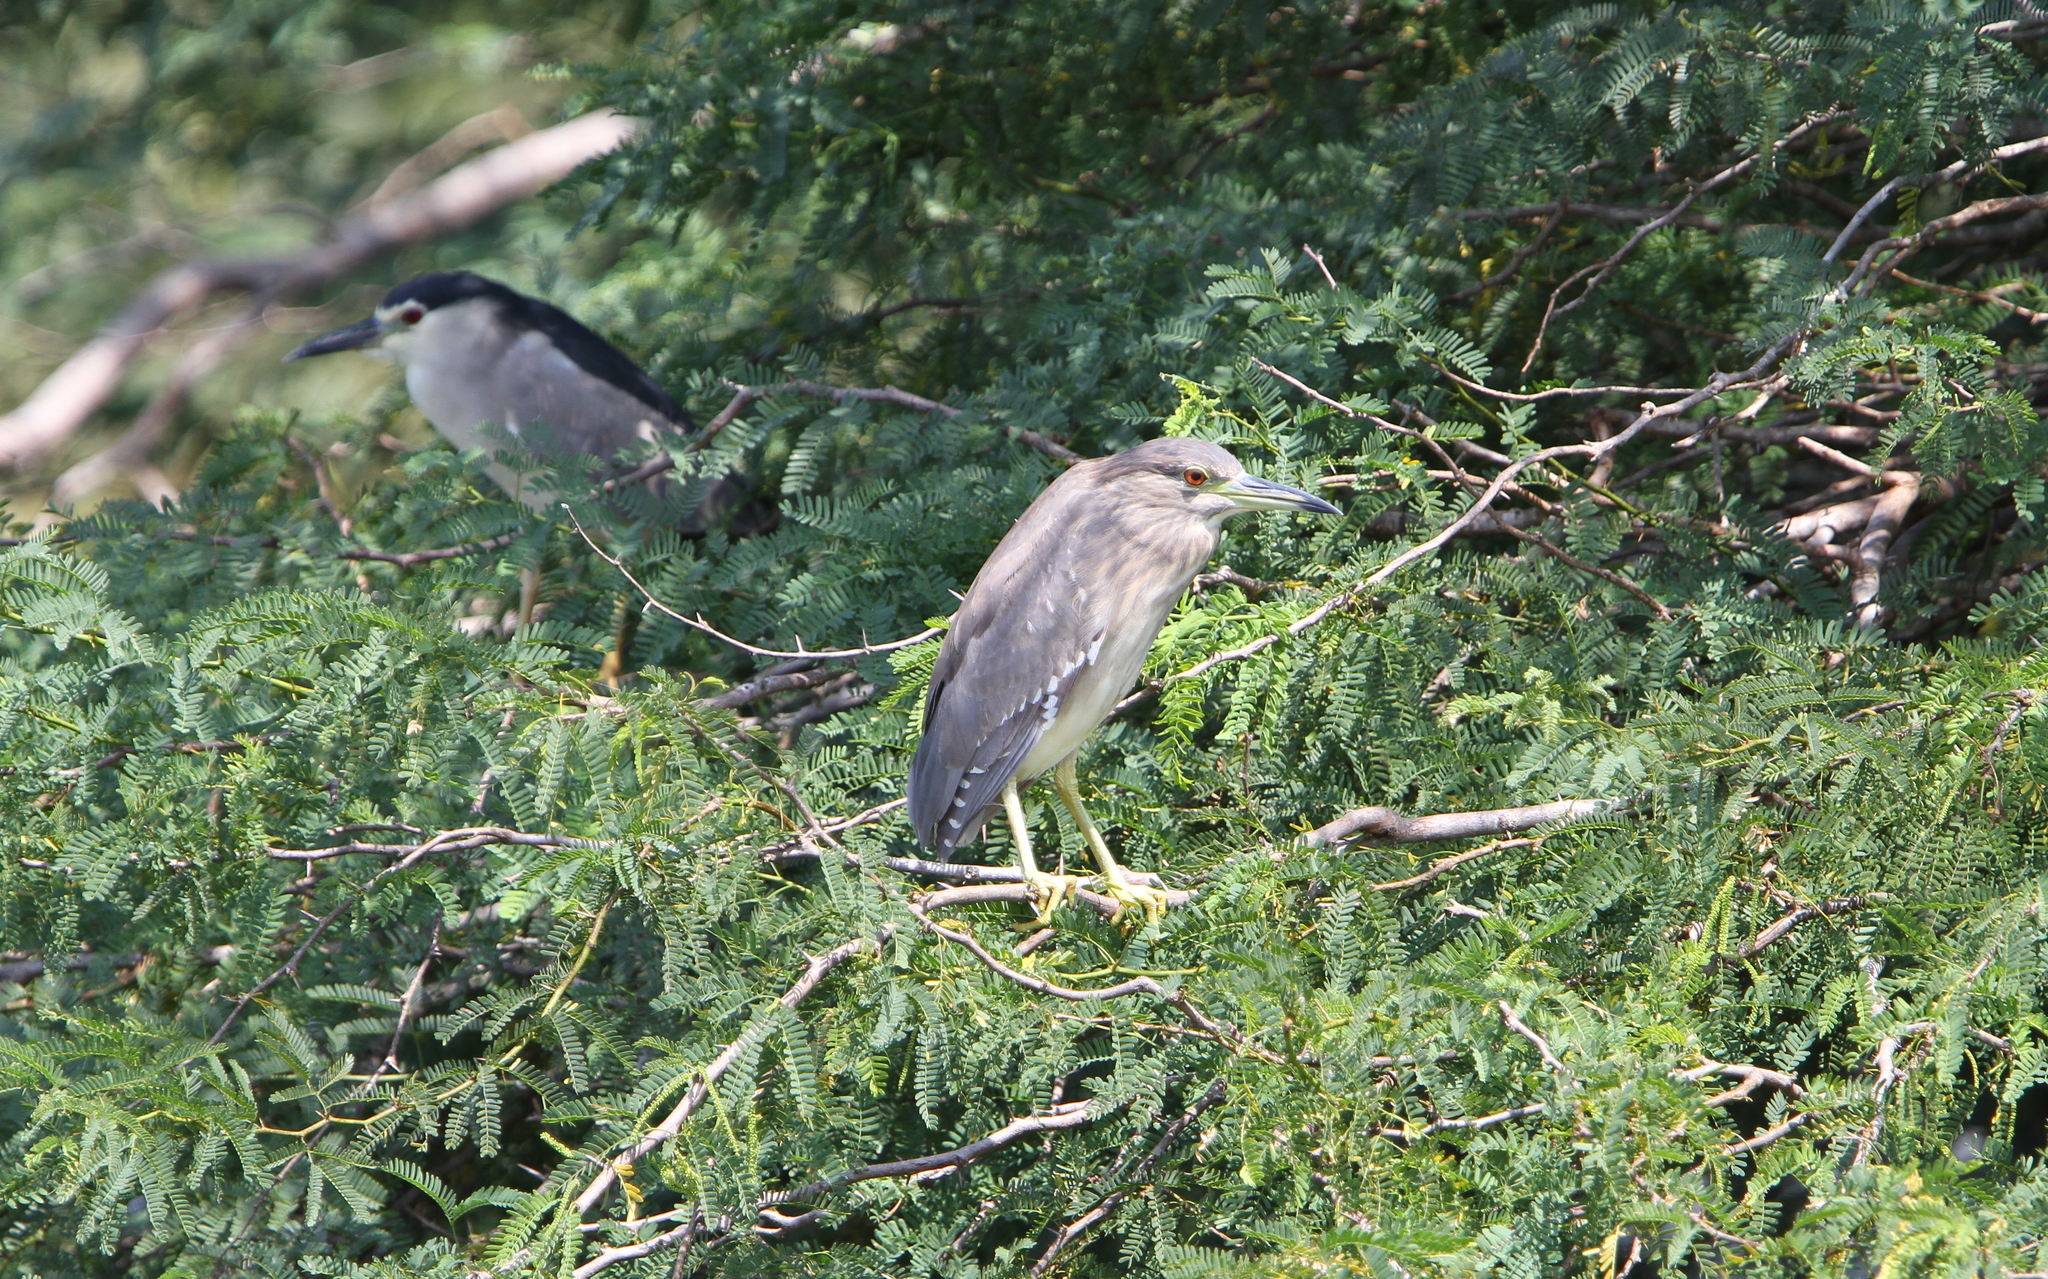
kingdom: Animalia
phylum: Chordata
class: Aves
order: Pelecaniformes
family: Ardeidae
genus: Nycticorax
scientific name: Nycticorax nycticorax
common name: Black-crowned night heron
